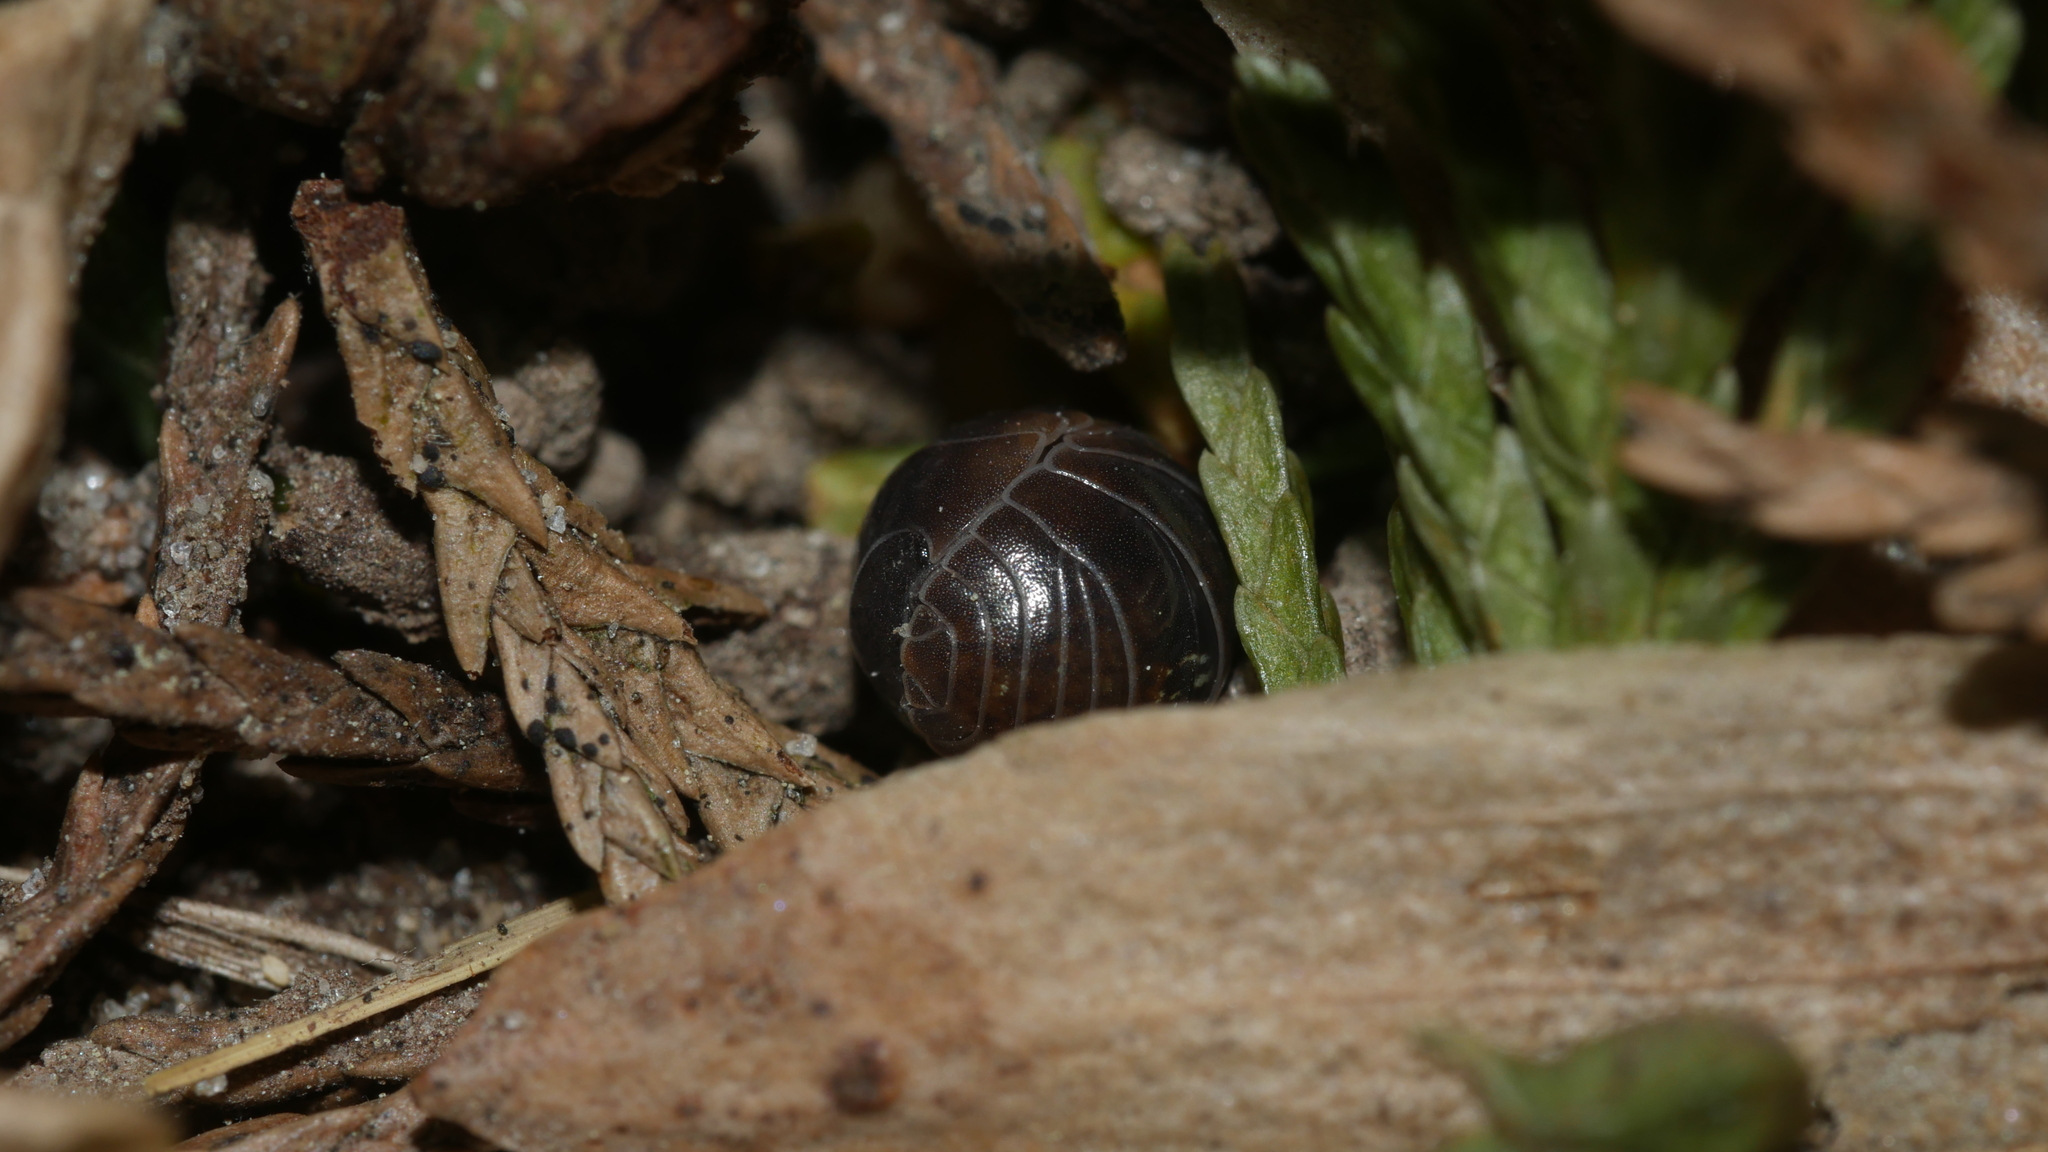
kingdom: Animalia
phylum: Arthropoda
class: Malacostraca
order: Isopoda
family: Armadillidiidae
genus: Armadillidium
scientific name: Armadillidium vulgare
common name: Common pill woodlouse
